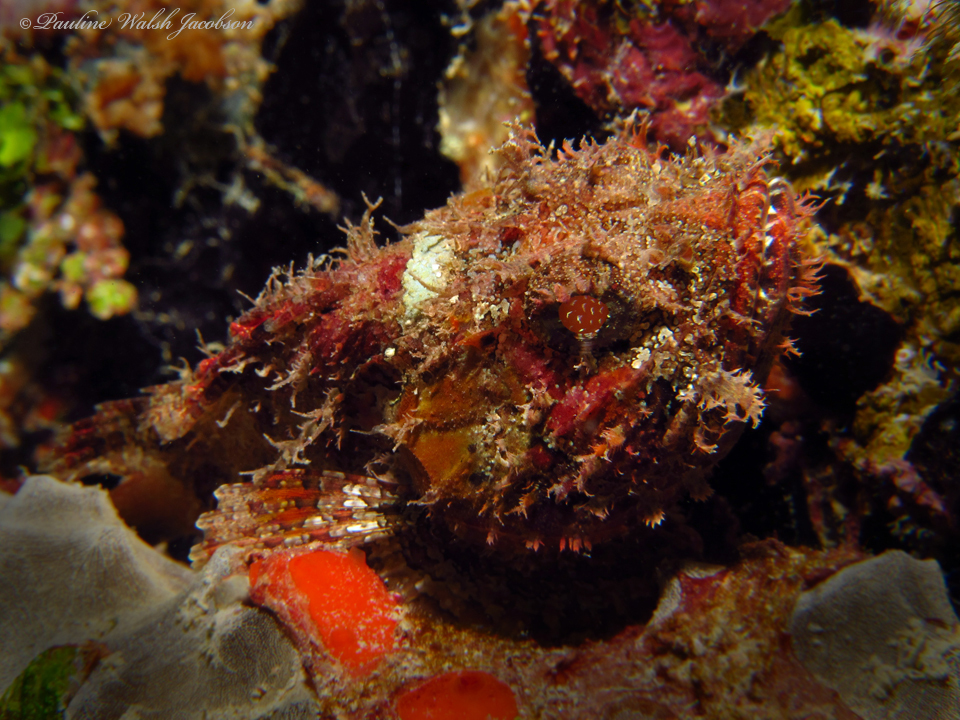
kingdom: Animalia
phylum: Chordata
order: Scorpaeniformes
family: Scorpaenidae
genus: Scorpaena
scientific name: Scorpaena plumieri
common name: Spotted scorpionfish
